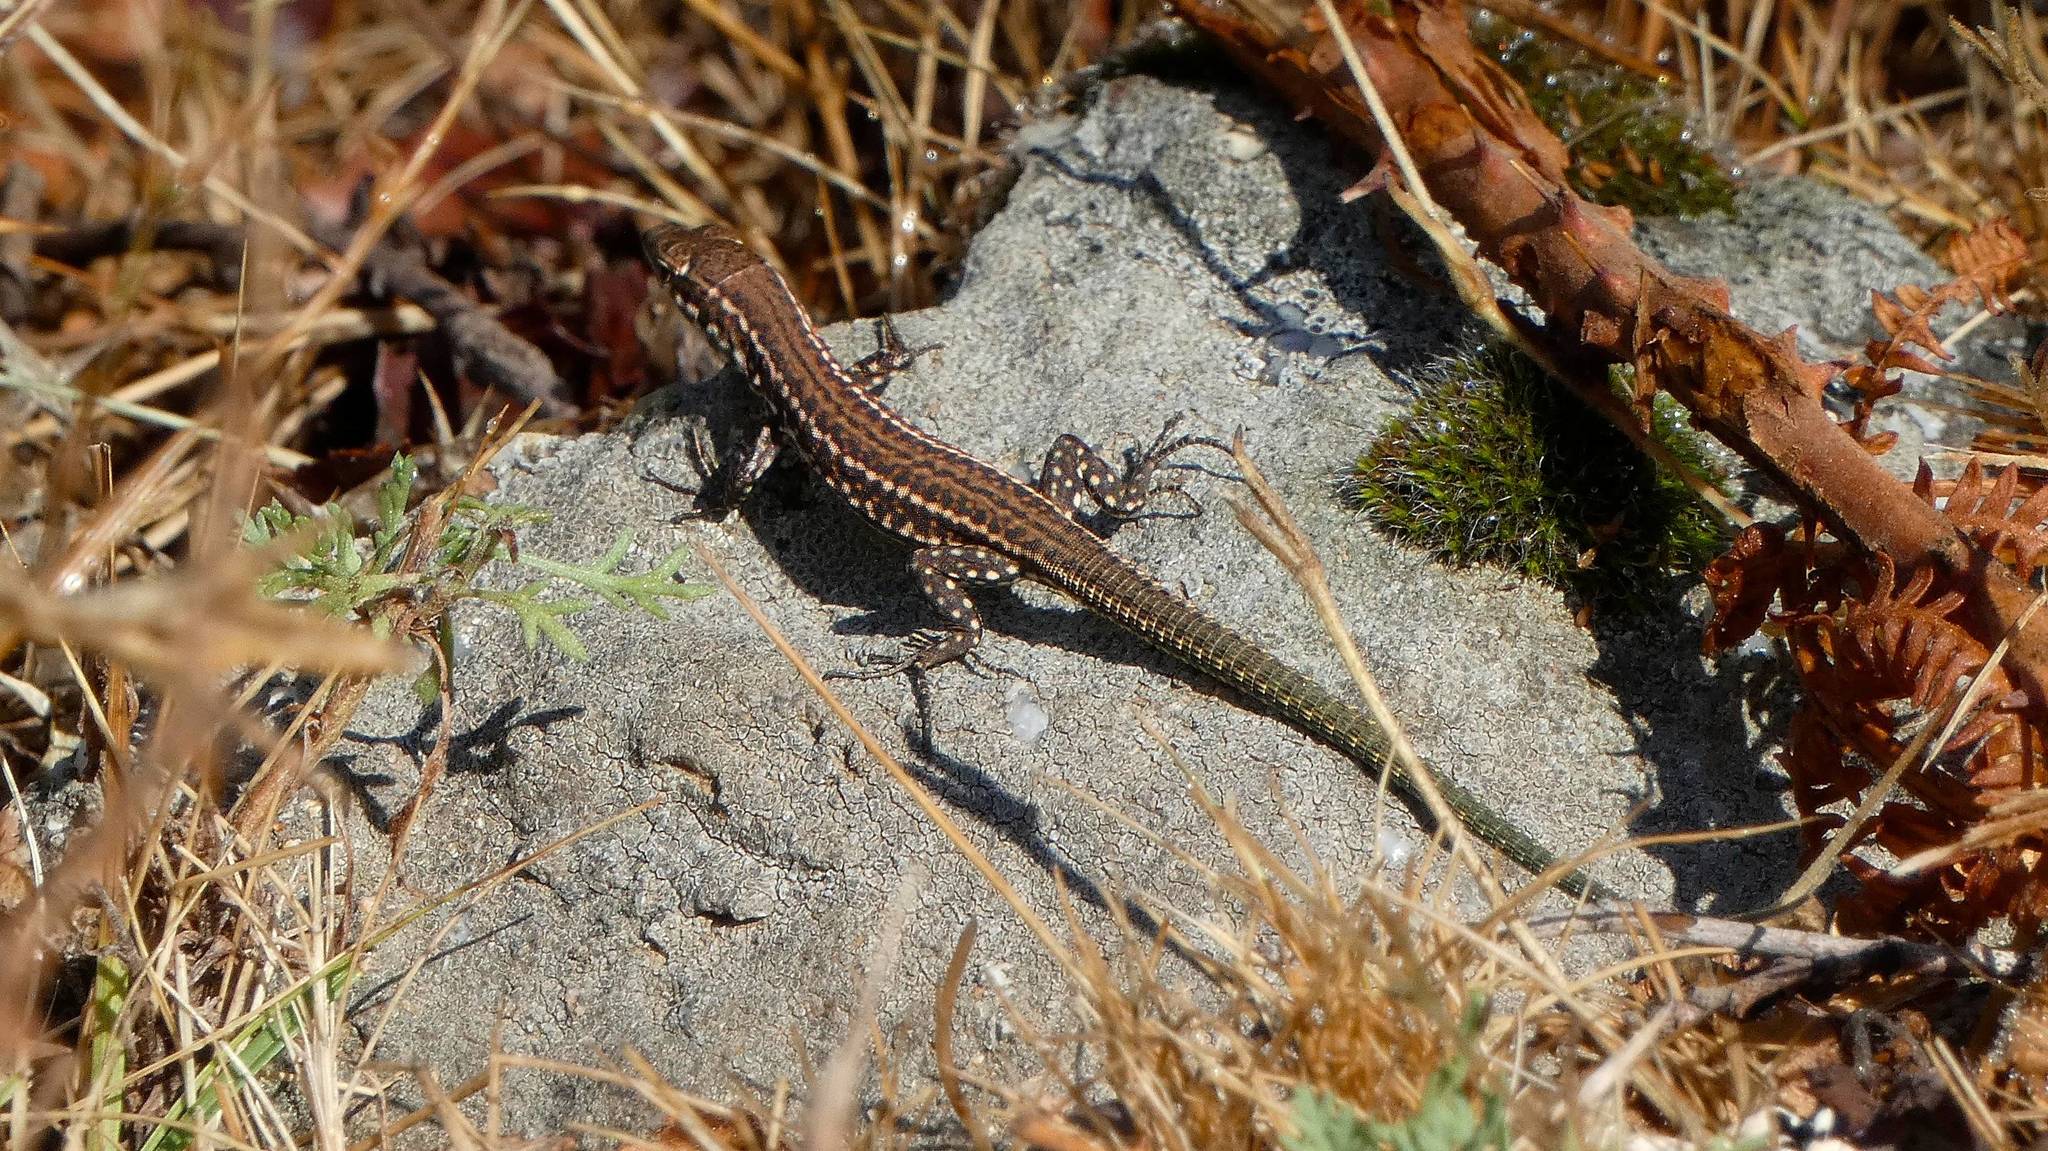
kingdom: Animalia
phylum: Chordata
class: Squamata
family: Lacertidae
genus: Podarcis
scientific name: Podarcis tiliguerta
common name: Tyrrhenian wall lizard
